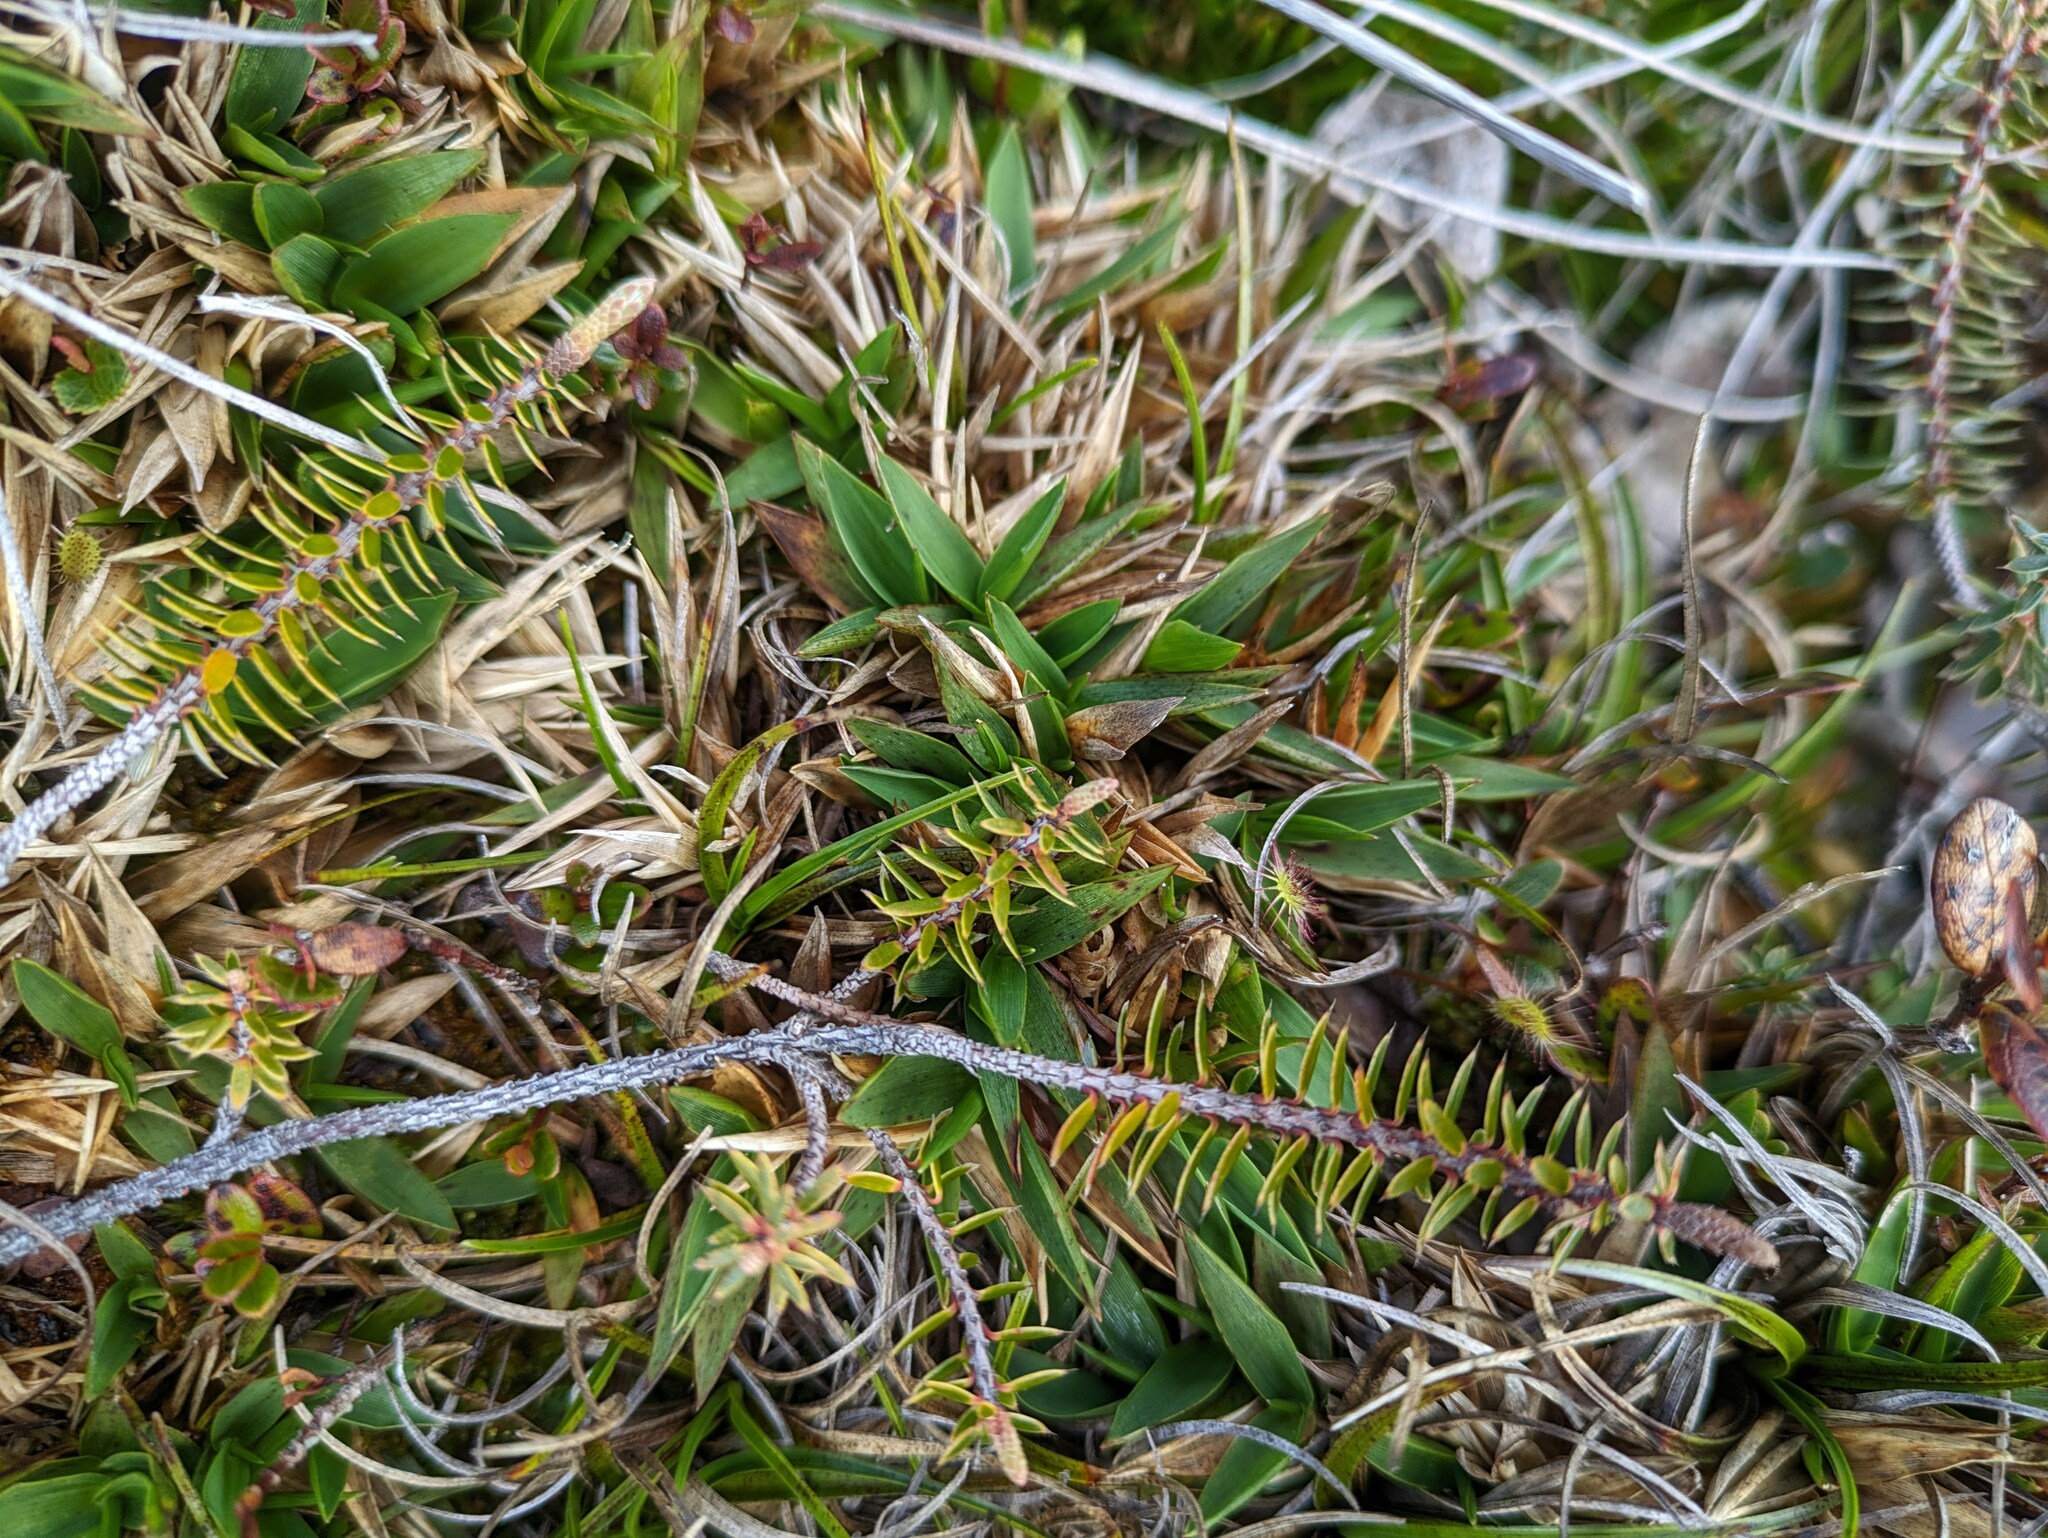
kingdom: Plantae
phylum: Tracheophyta
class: Liliopsida
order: Poales
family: Poaceae
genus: Dichanthelium
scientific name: Dichanthelium cynodon
